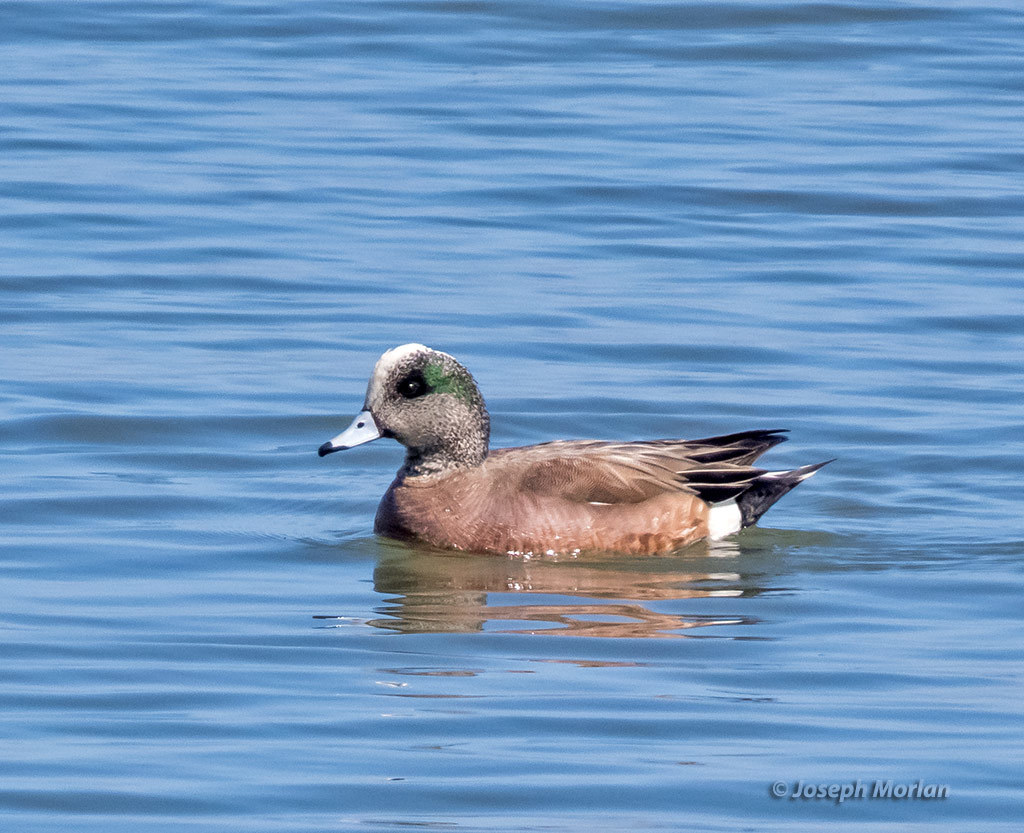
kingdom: Animalia
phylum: Chordata
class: Aves
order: Anseriformes
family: Anatidae
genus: Mareca
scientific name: Mareca americana
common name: American wigeon
